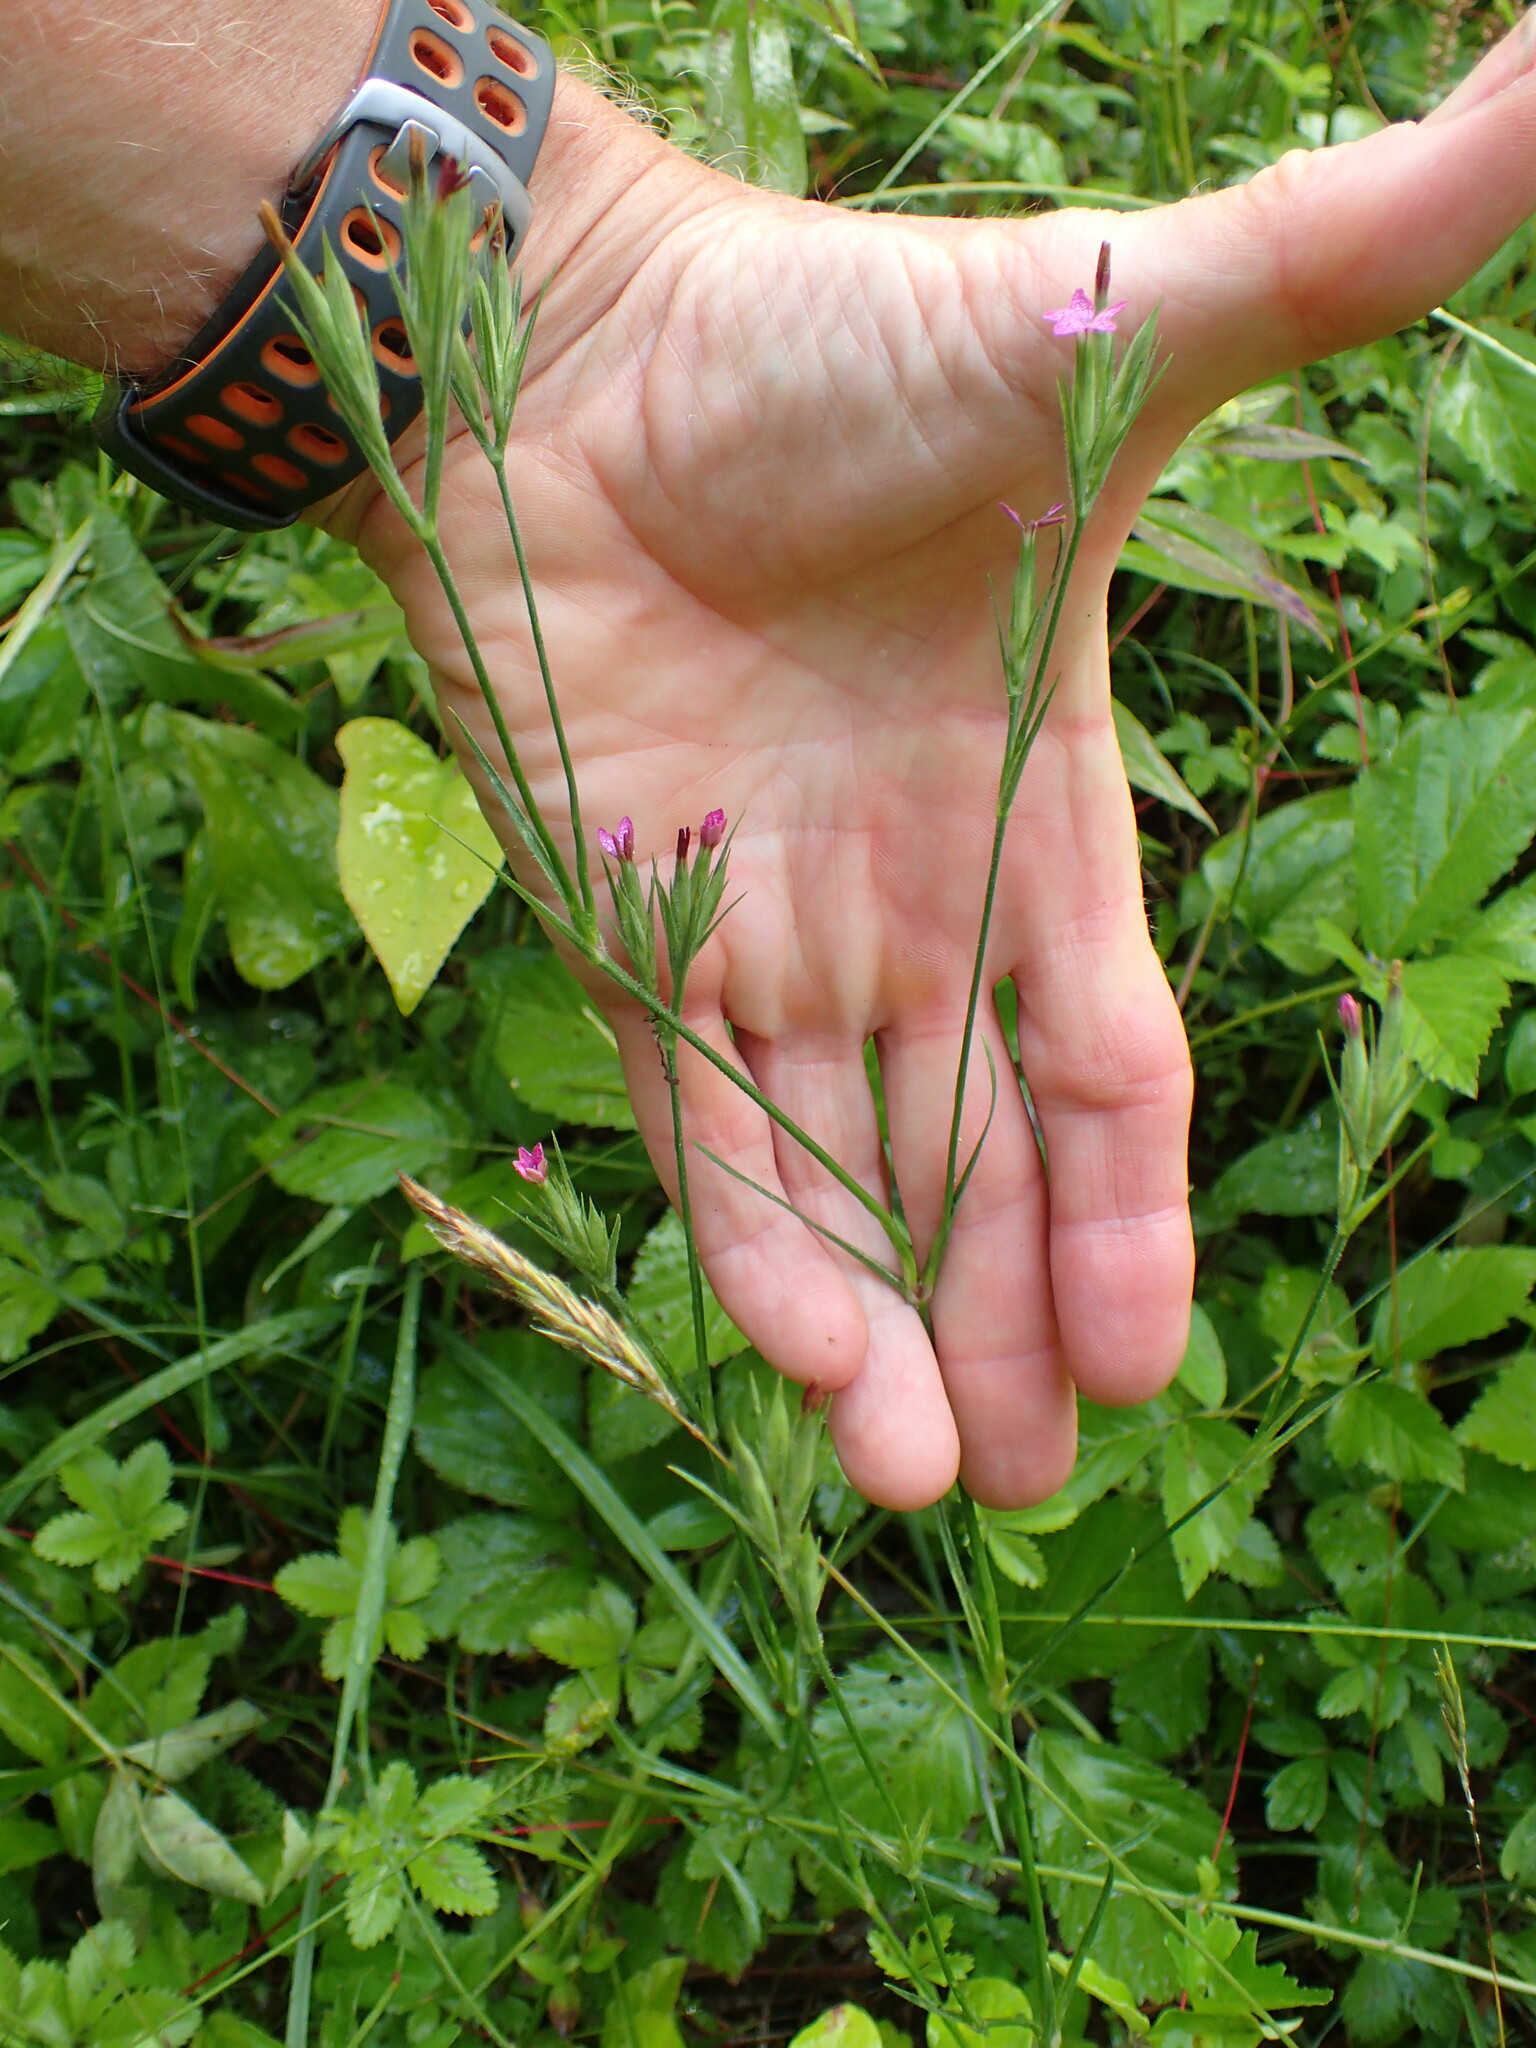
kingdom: Plantae
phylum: Tracheophyta
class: Magnoliopsida
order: Caryophyllales
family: Caryophyllaceae
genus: Dianthus
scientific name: Dianthus armeria
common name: Deptford pink
